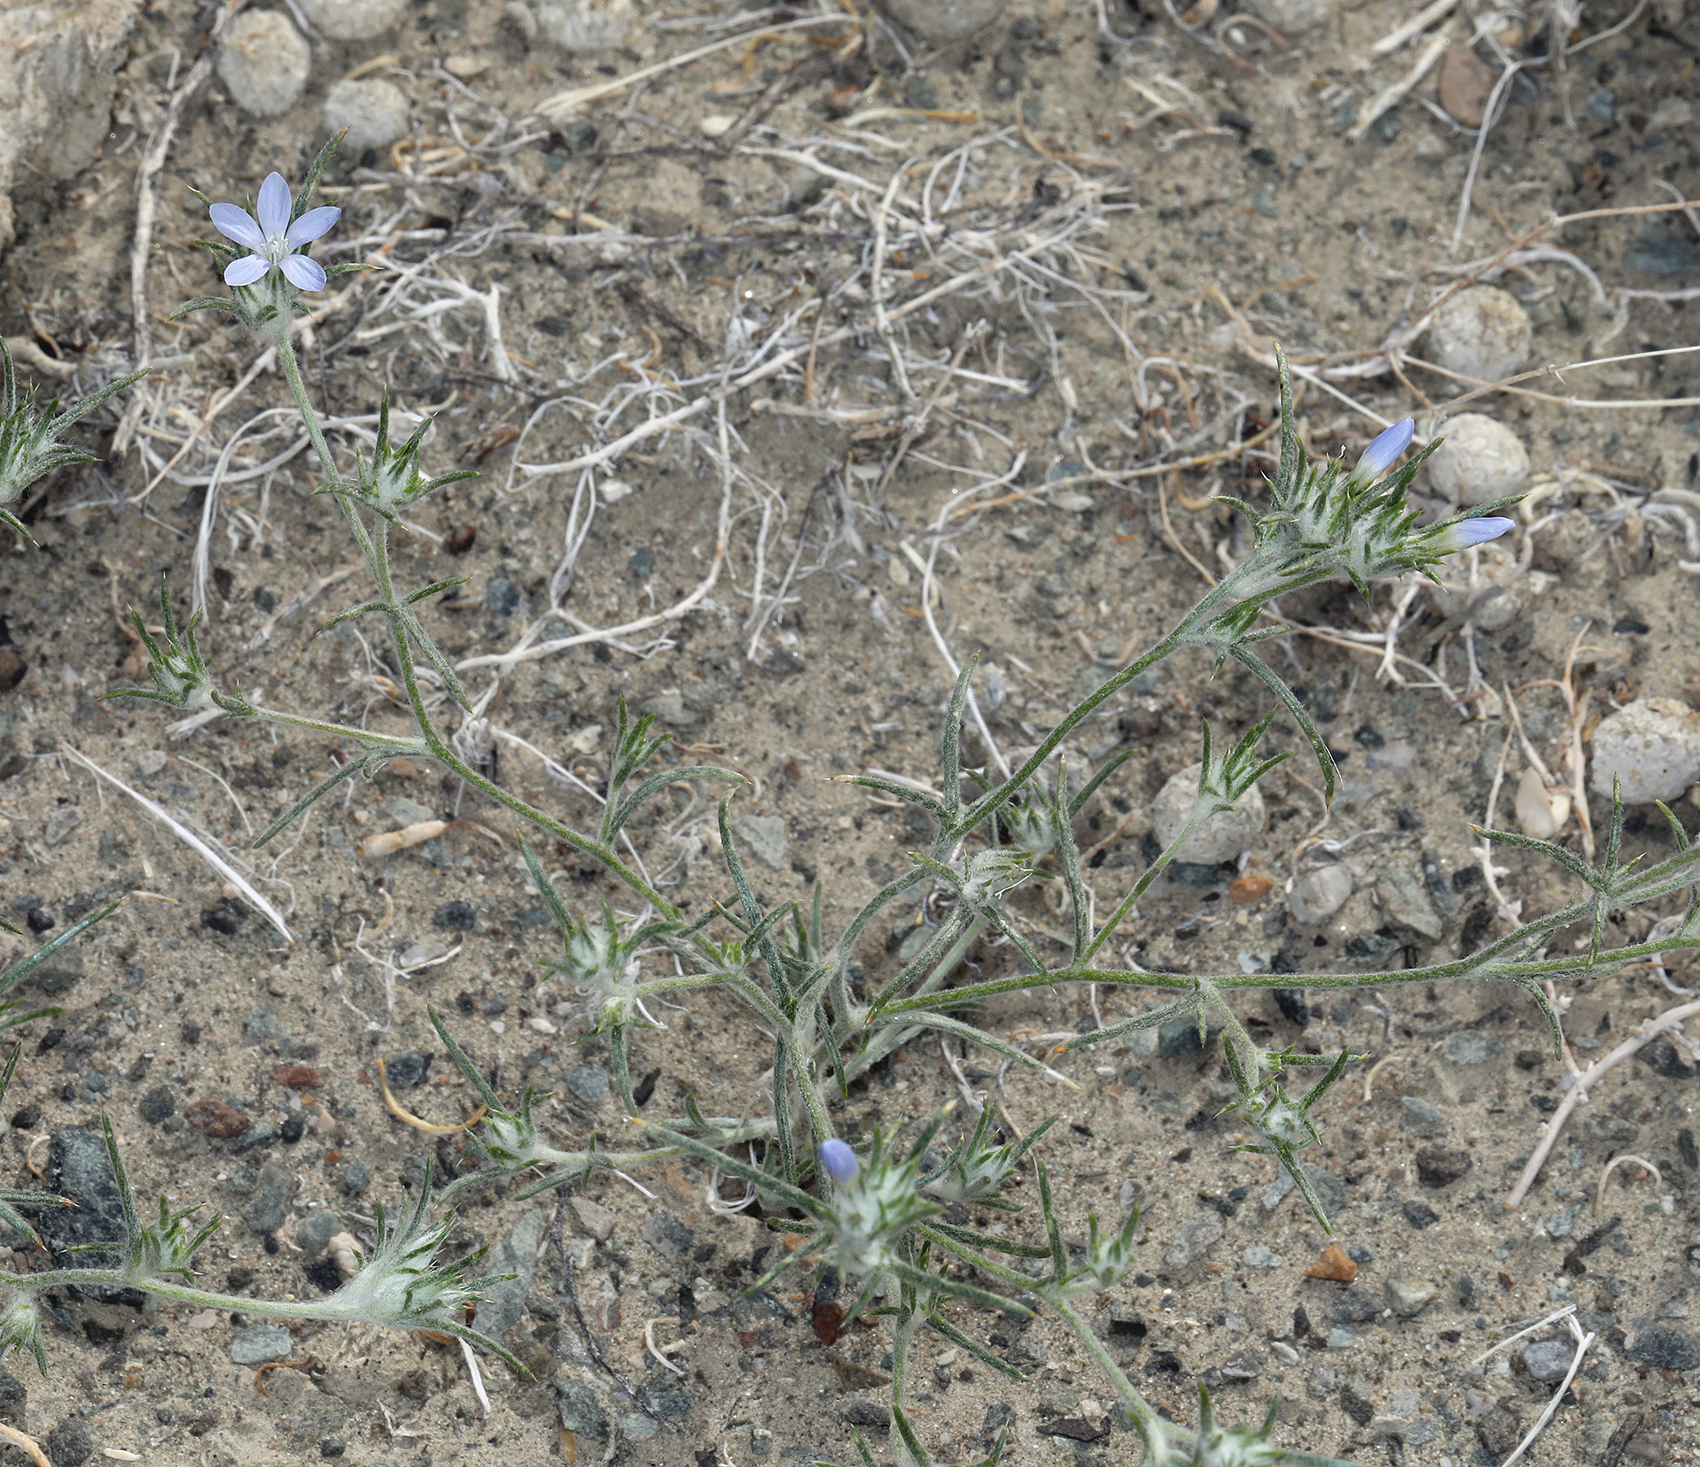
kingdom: Plantae
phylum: Tracheophyta
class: Magnoliopsida
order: Ericales
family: Polemoniaceae
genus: Eriastrum
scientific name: Eriastrum wilcoxii
